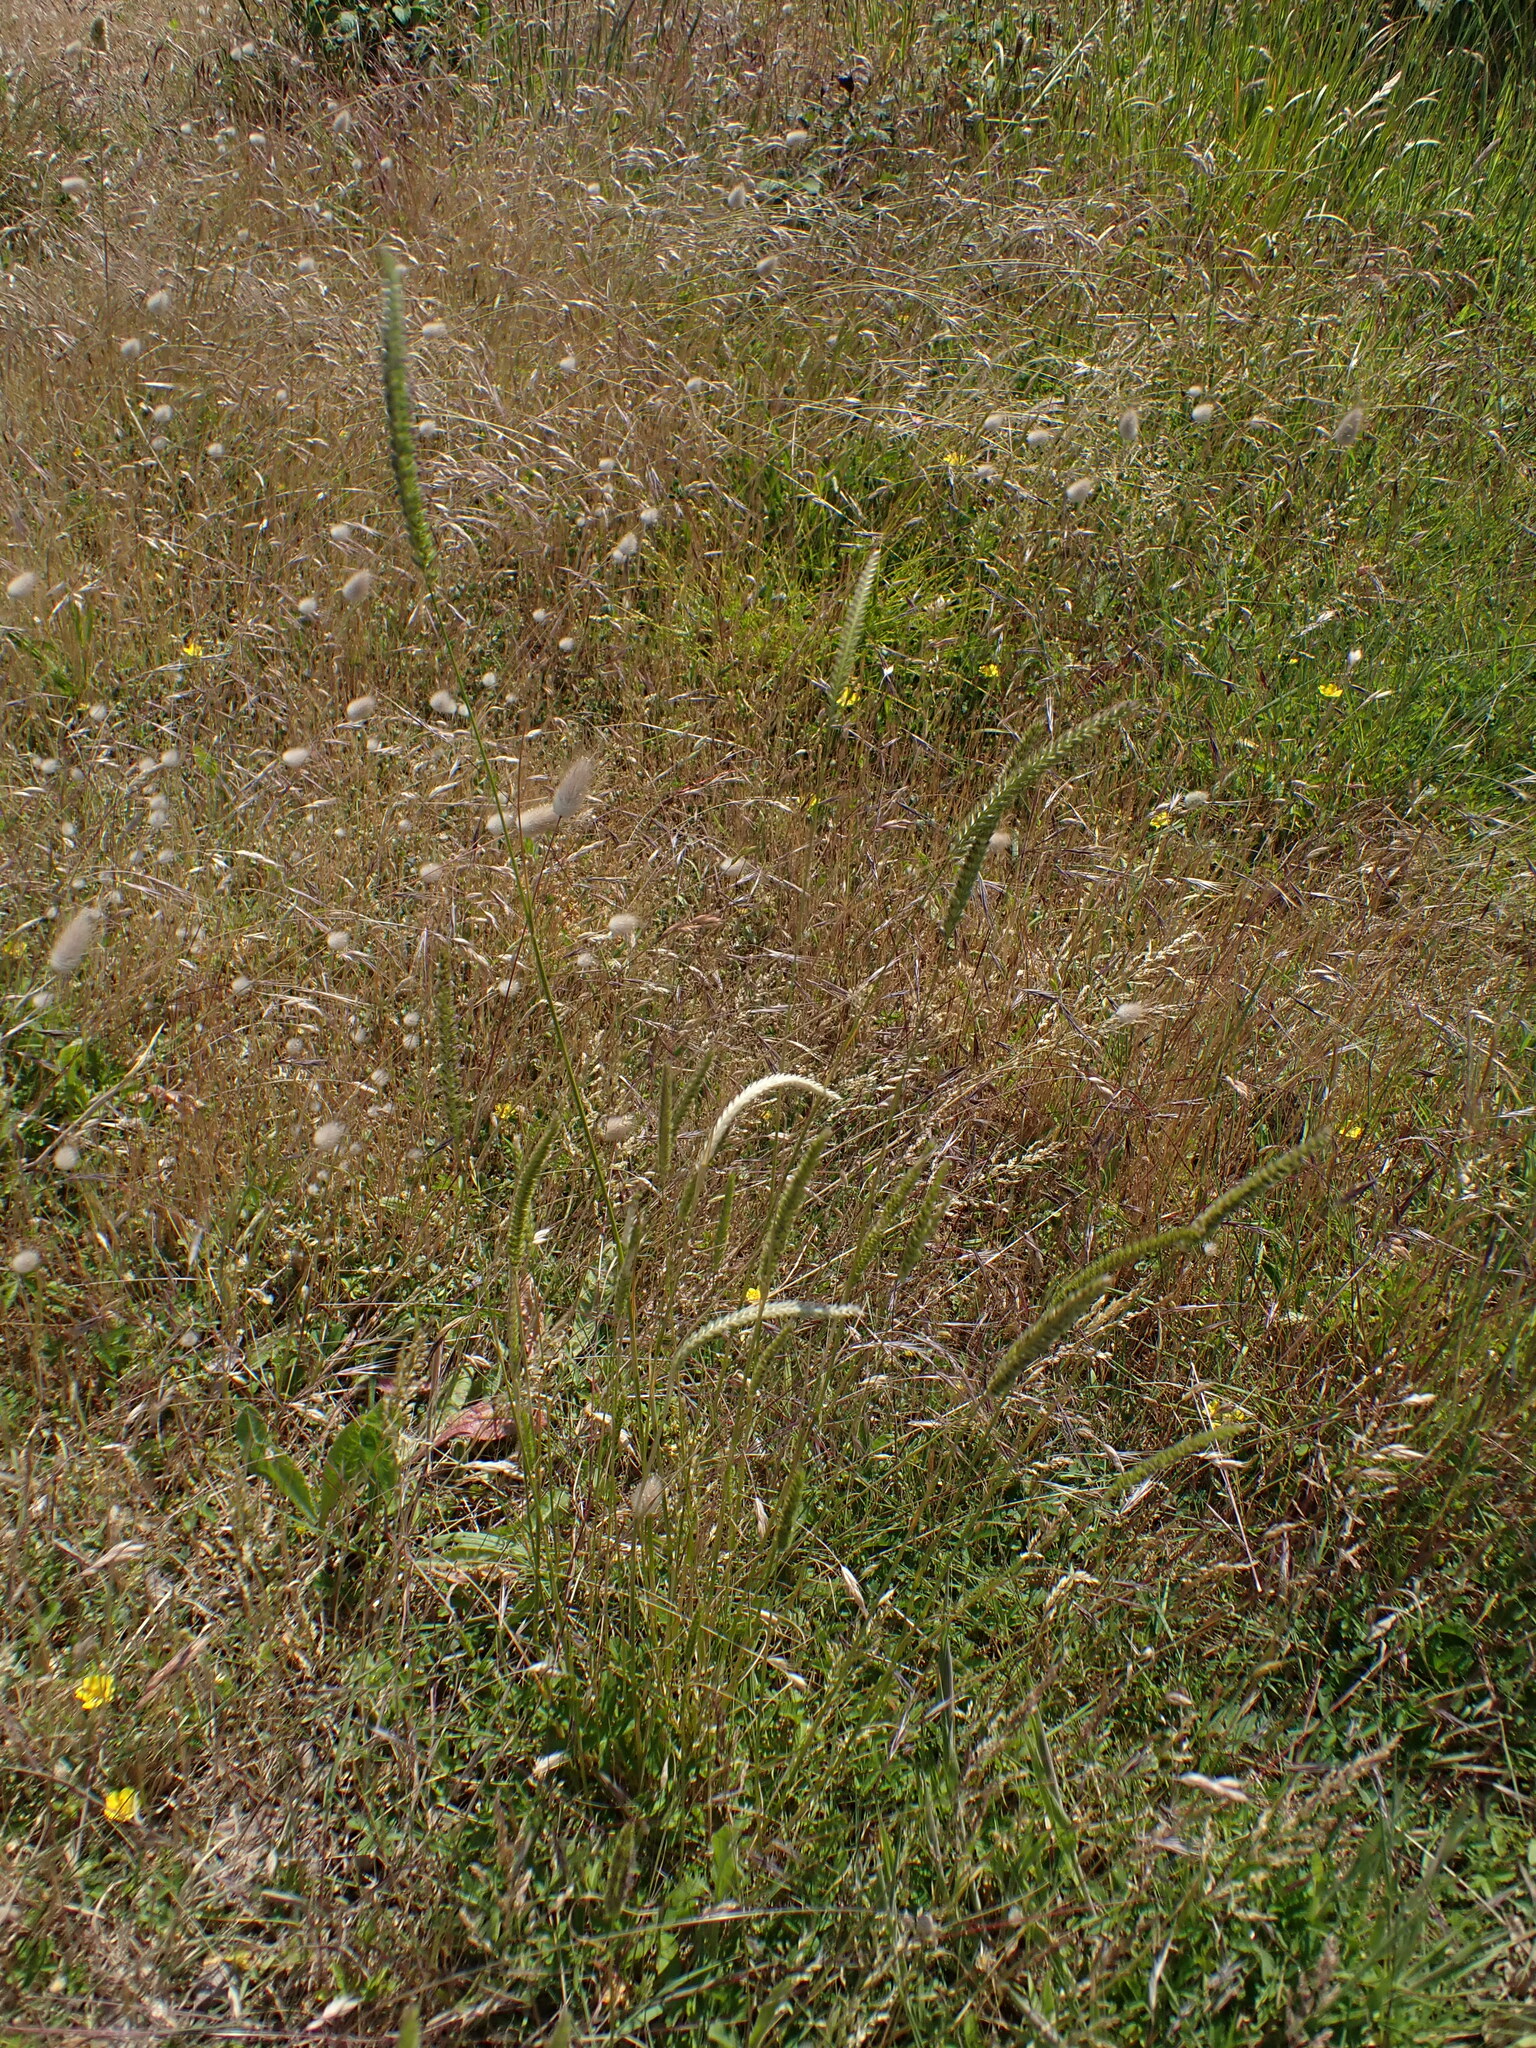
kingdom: Plantae
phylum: Tracheophyta
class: Liliopsida
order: Poales
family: Poaceae
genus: Cynosurus
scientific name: Cynosurus cristatus
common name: Crested dog's-tail
